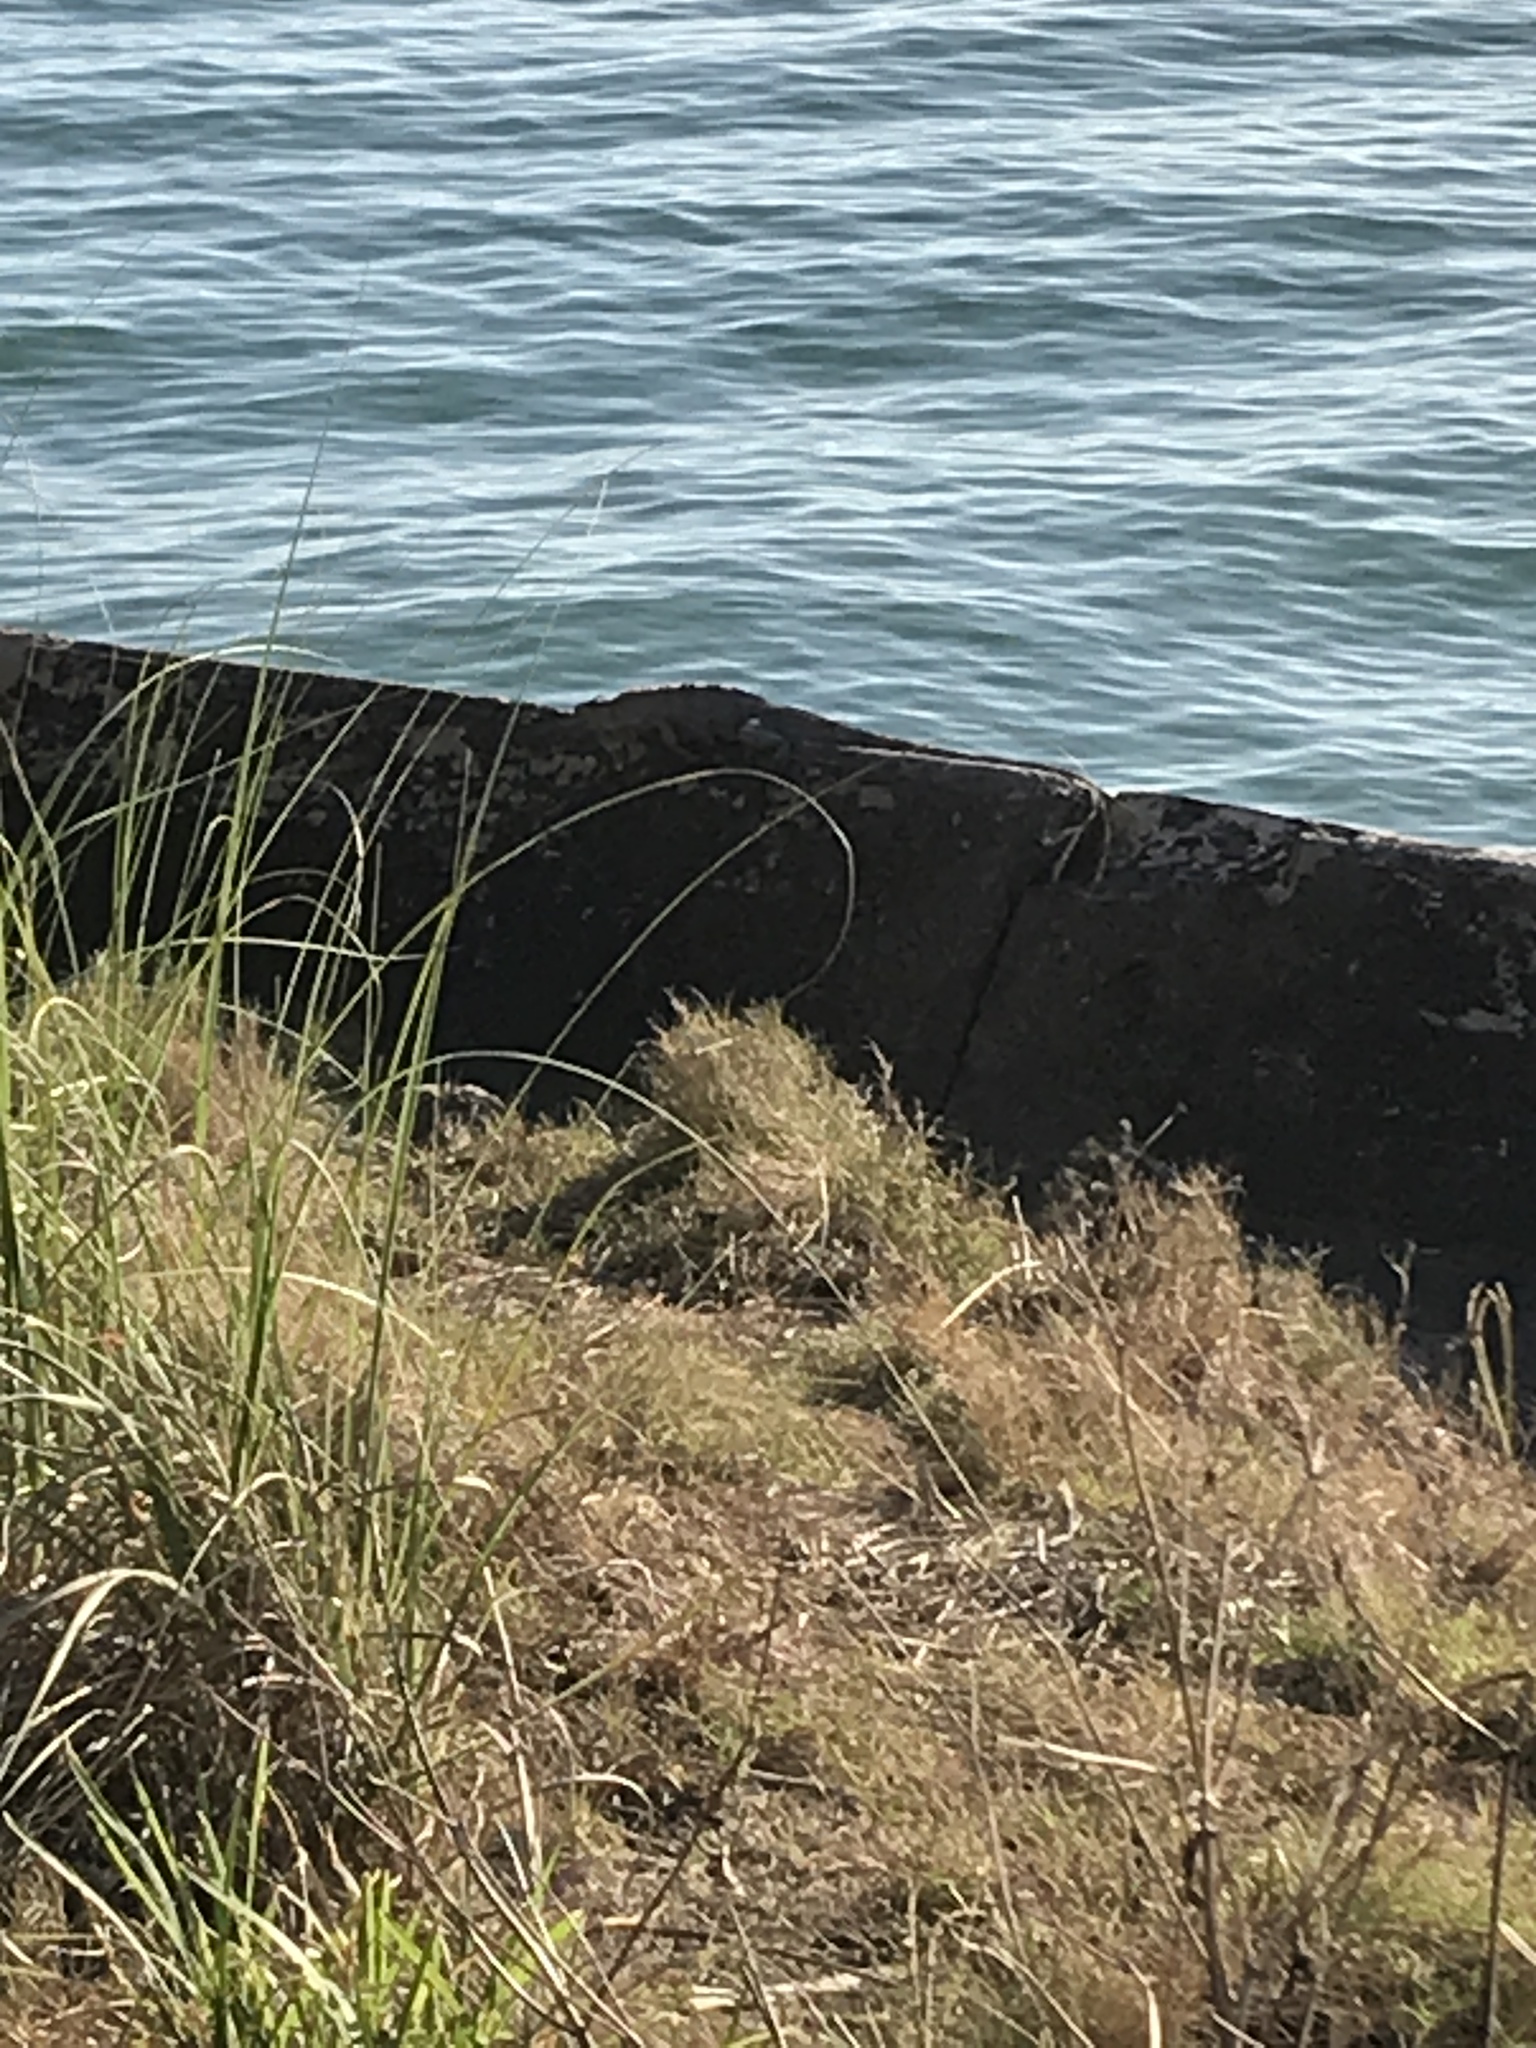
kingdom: Animalia
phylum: Chordata
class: Squamata
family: Iguanidae
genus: Iguana
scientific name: Iguana iguana
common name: Green iguana
